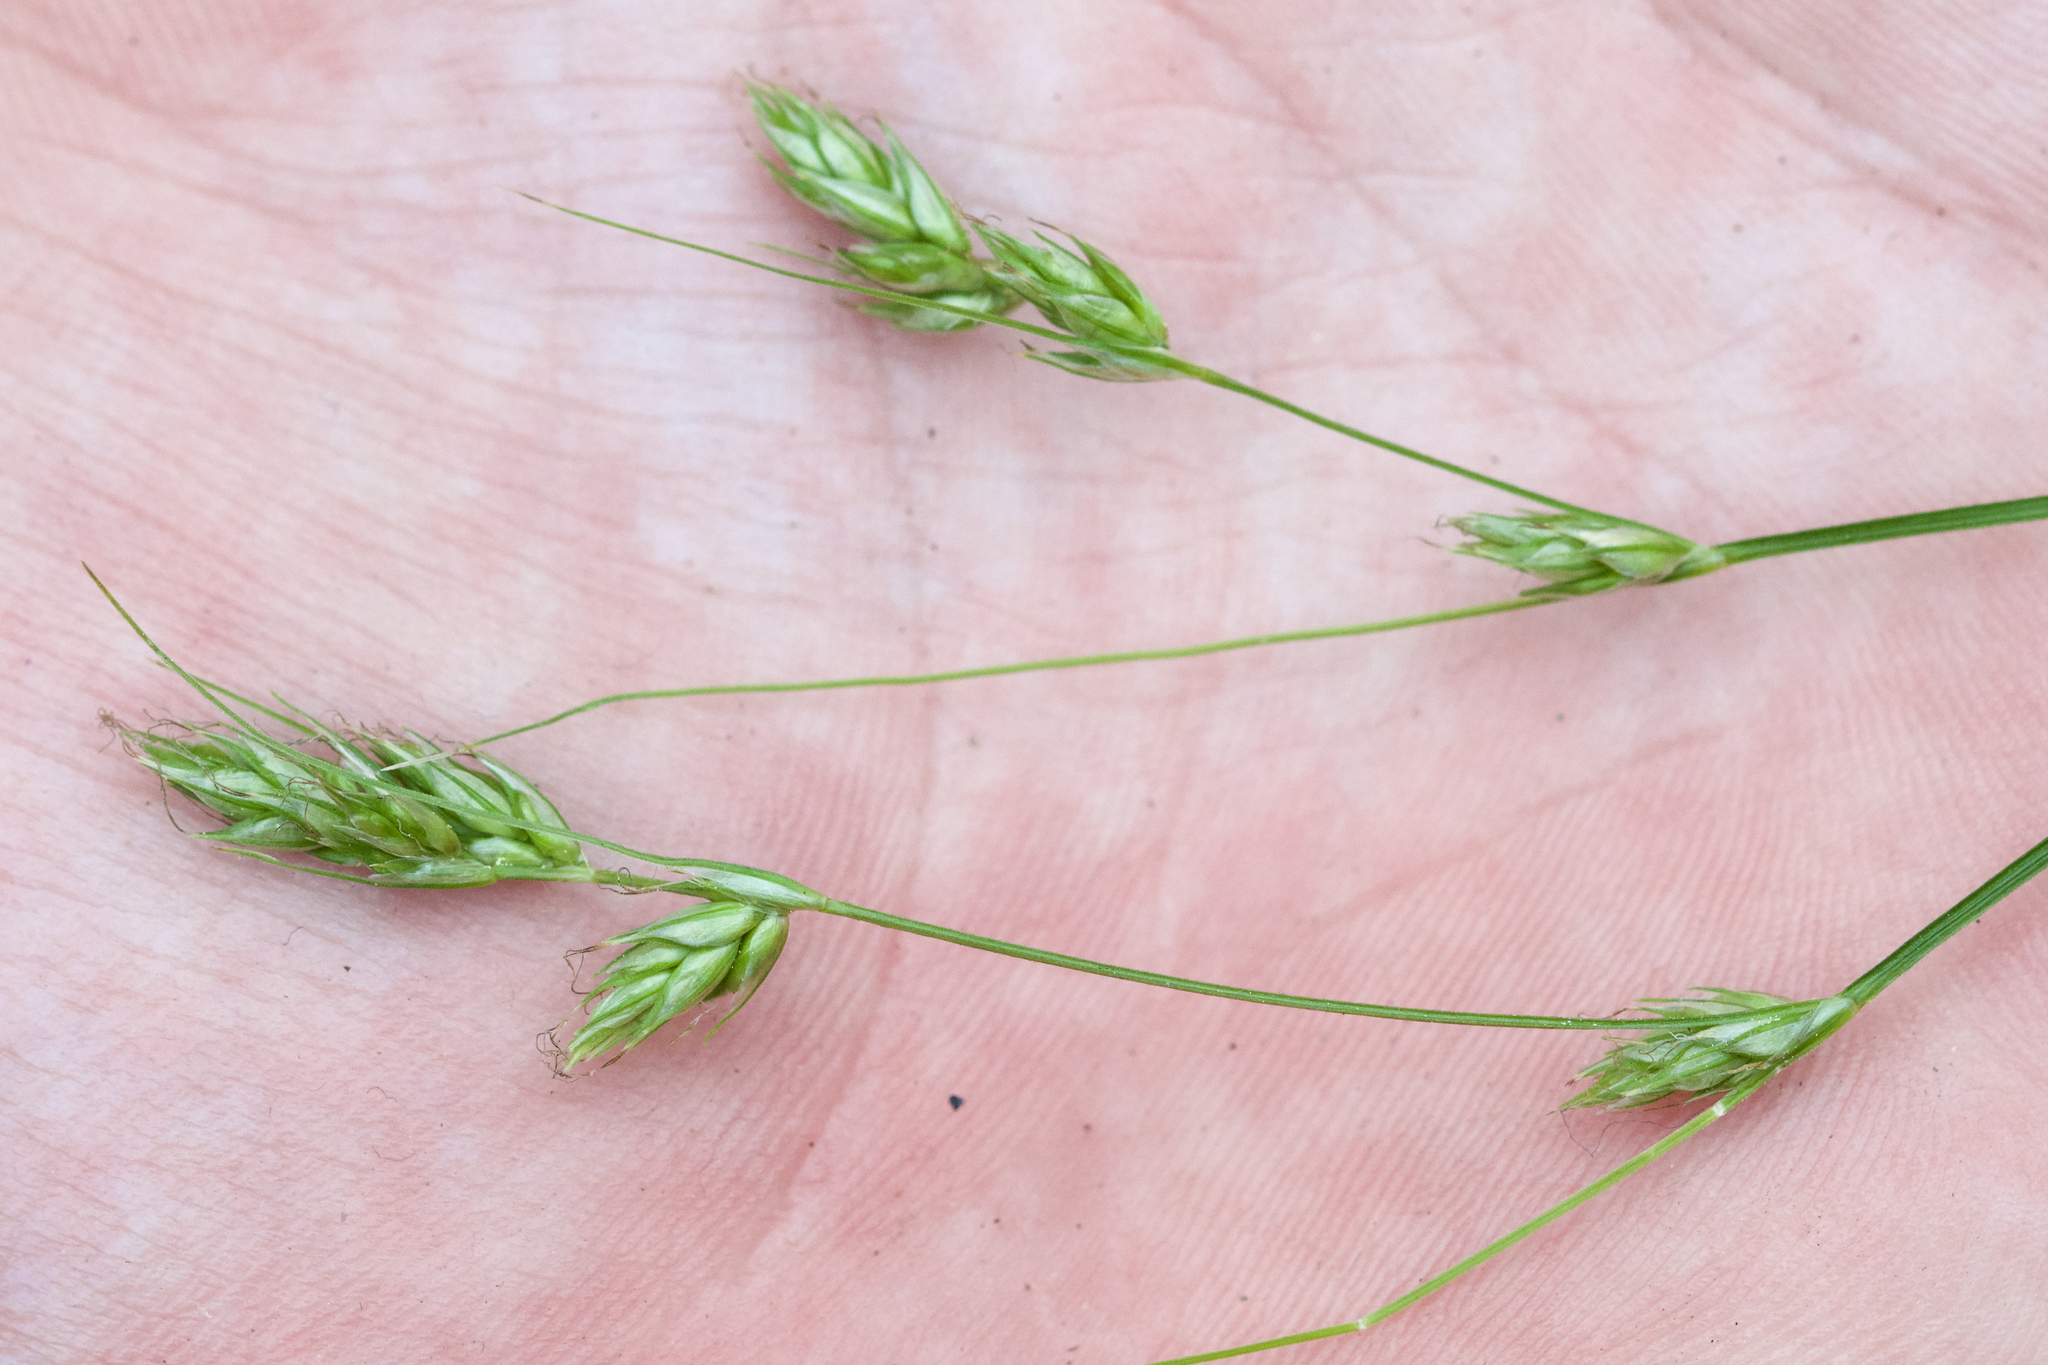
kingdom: Plantae
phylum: Tracheophyta
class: Liliopsida
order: Poales
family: Cyperaceae
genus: Carex
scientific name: Carex deweyana
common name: Dewey's sedge
